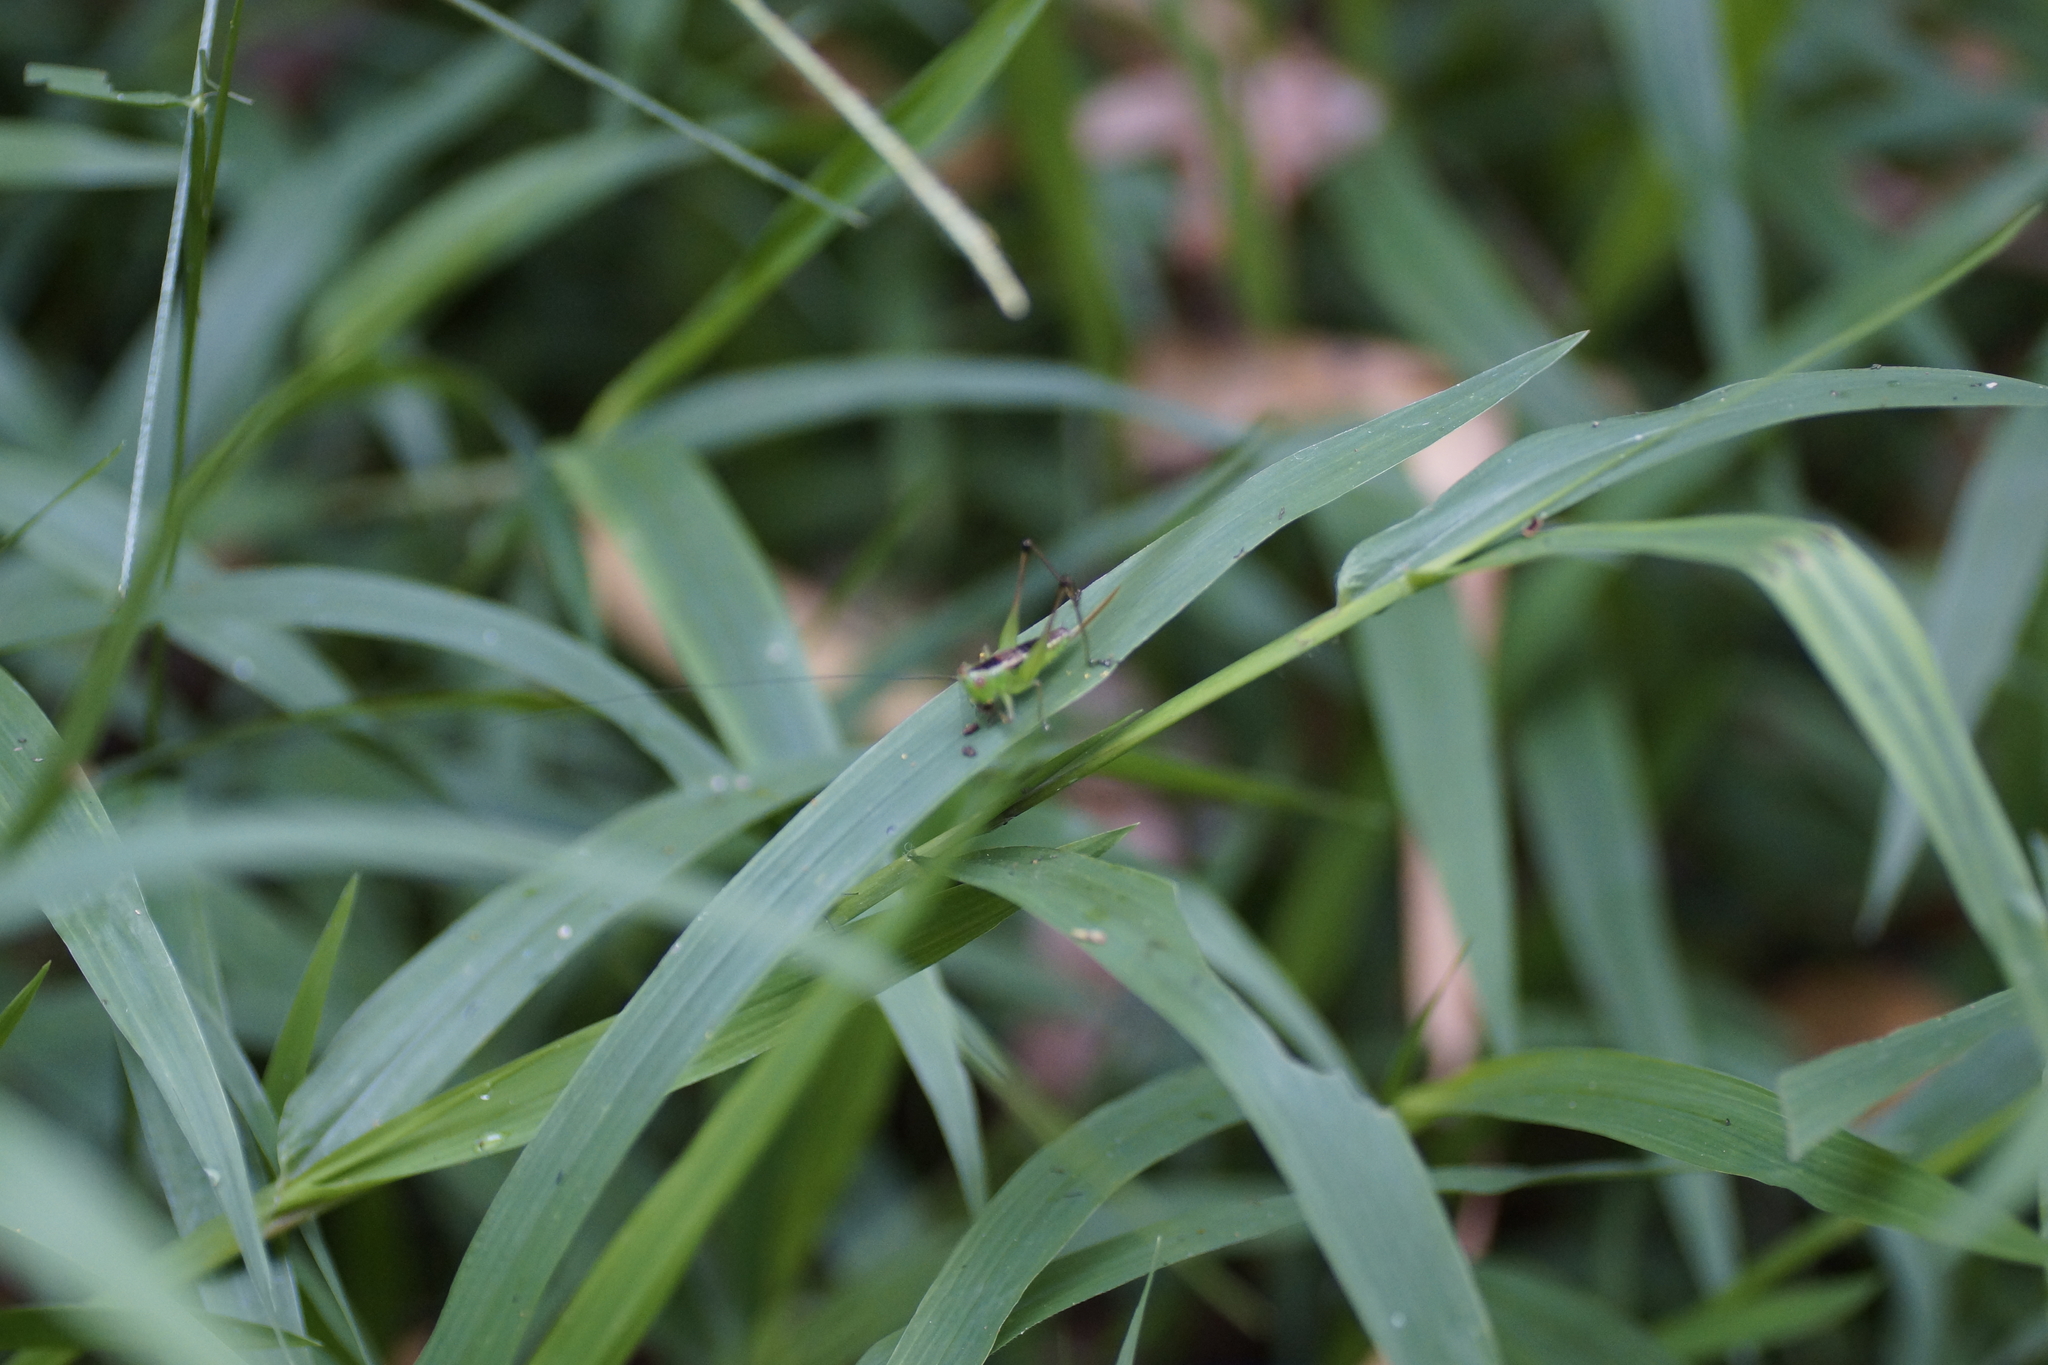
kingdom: Animalia
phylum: Arthropoda
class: Insecta
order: Orthoptera
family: Tettigoniidae
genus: Conocephalus
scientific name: Conocephalus semivittatus
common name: Blackish meadow katydid
